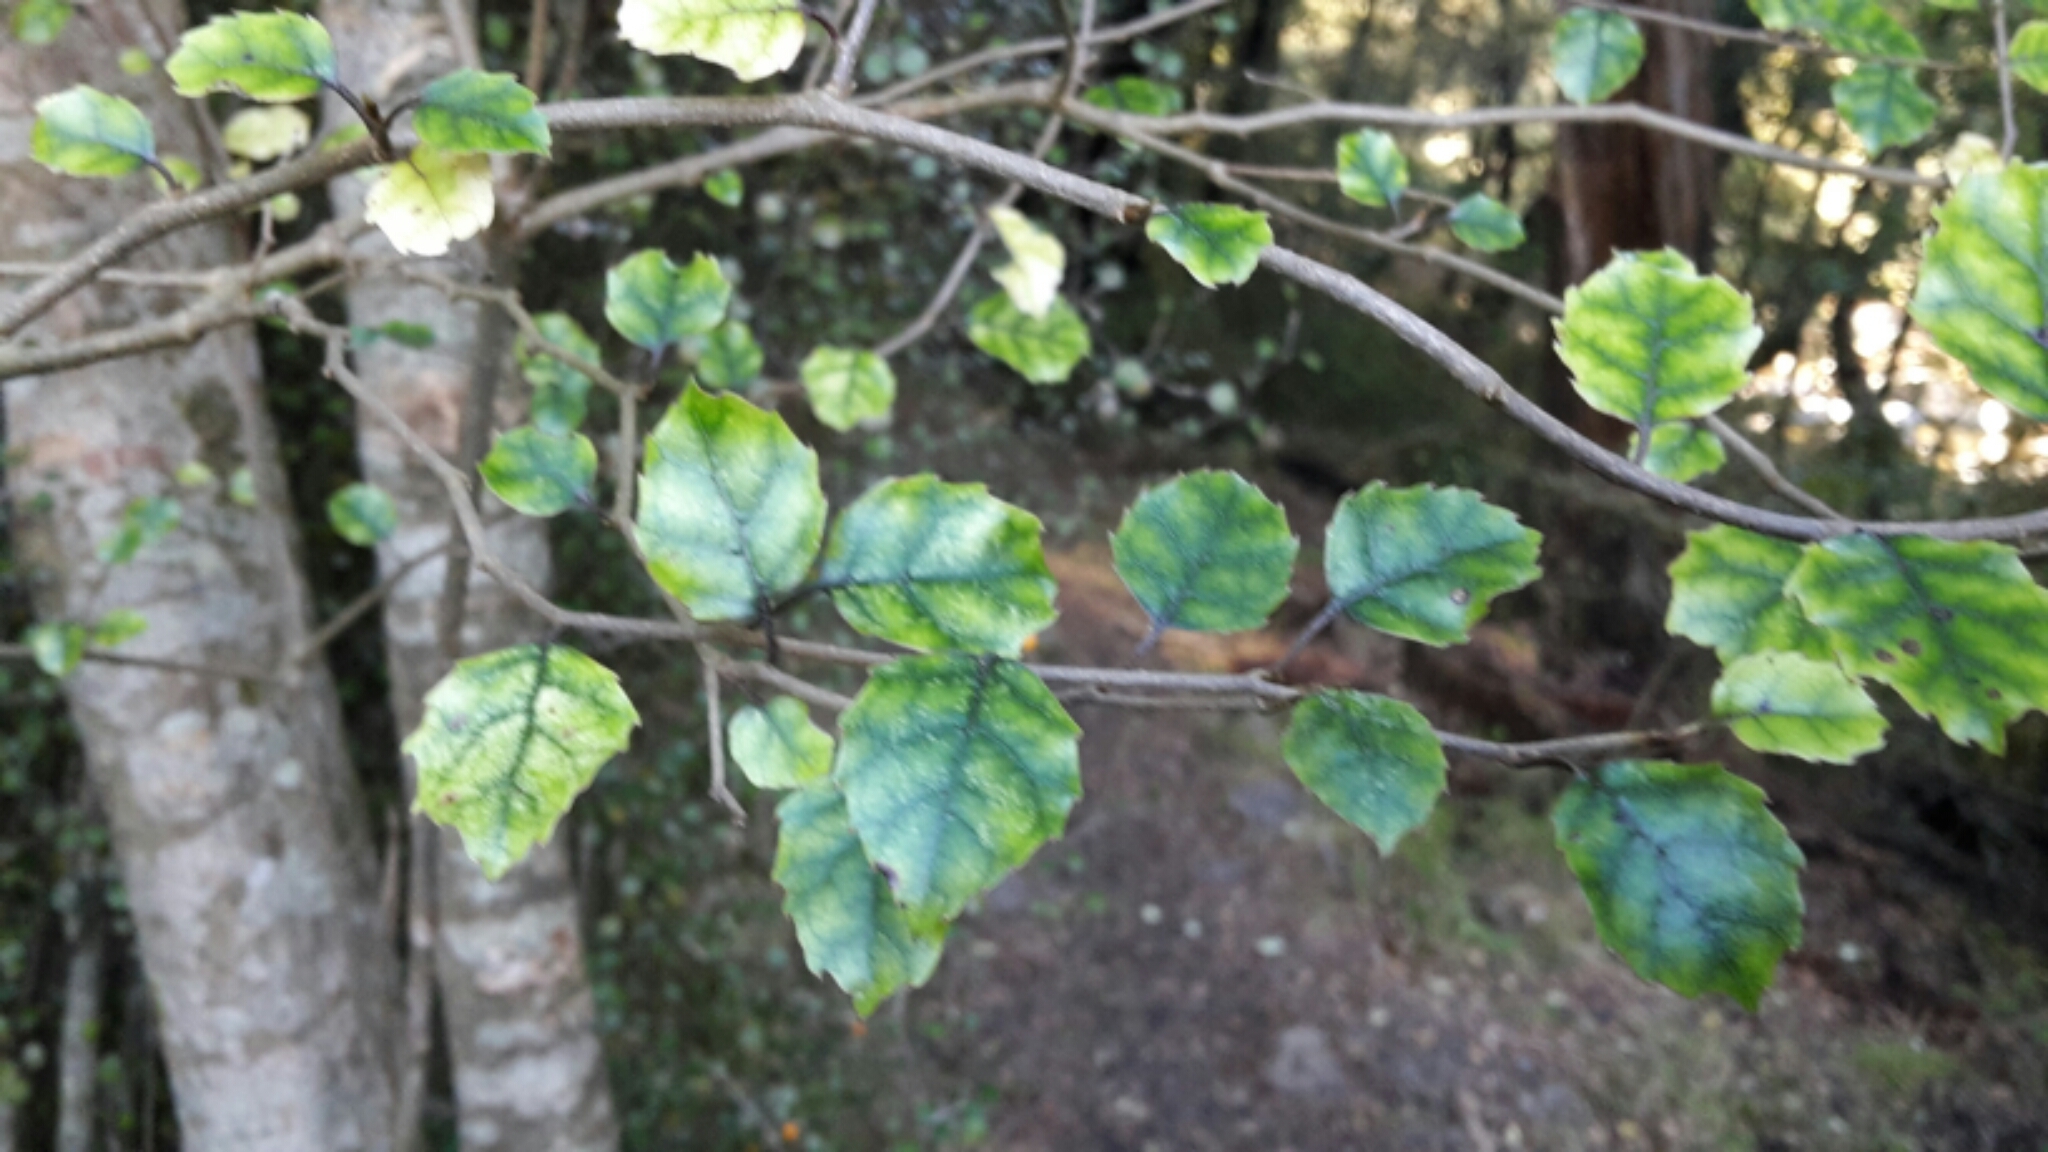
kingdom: Plantae
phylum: Tracheophyta
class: Magnoliopsida
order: Asterales
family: Rousseaceae
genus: Carpodetus
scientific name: Carpodetus serratus
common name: White mapau
